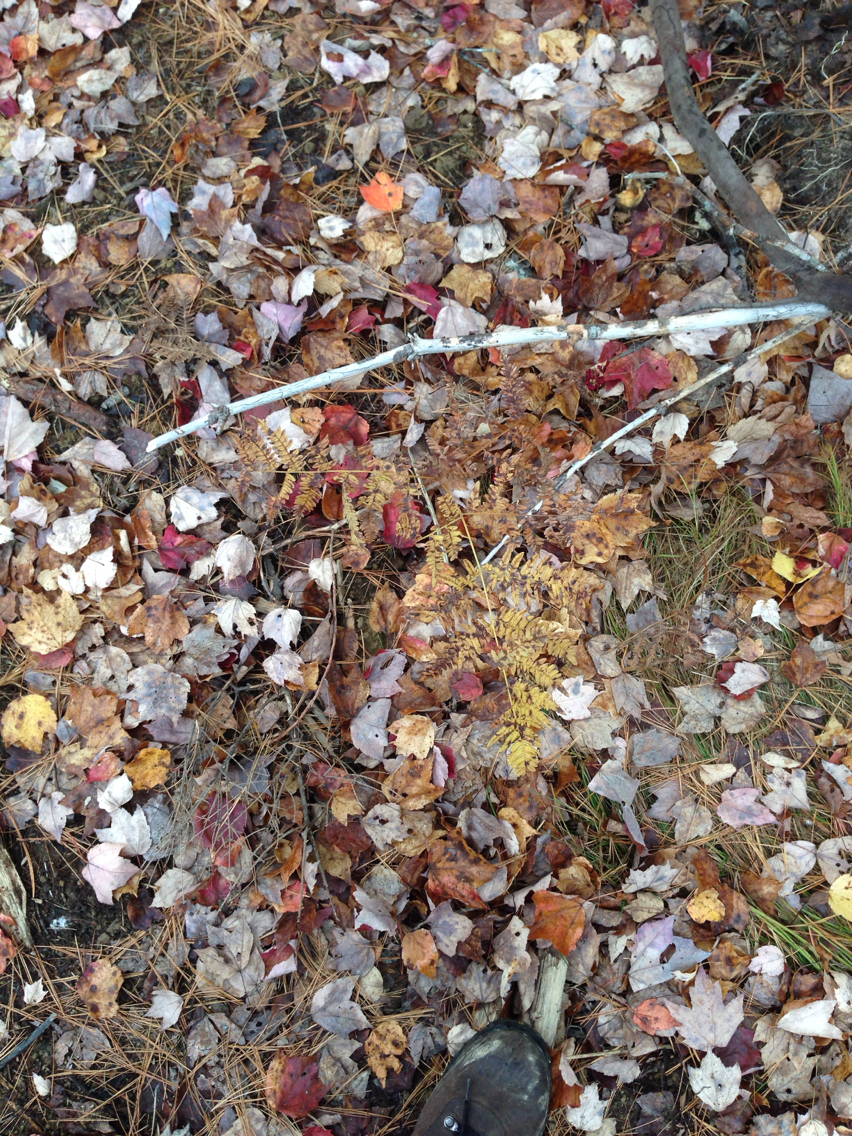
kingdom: Plantae
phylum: Tracheophyta
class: Polypodiopsida
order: Polypodiales
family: Dennstaedtiaceae
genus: Pteridium
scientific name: Pteridium aquilinum
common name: Bracken
